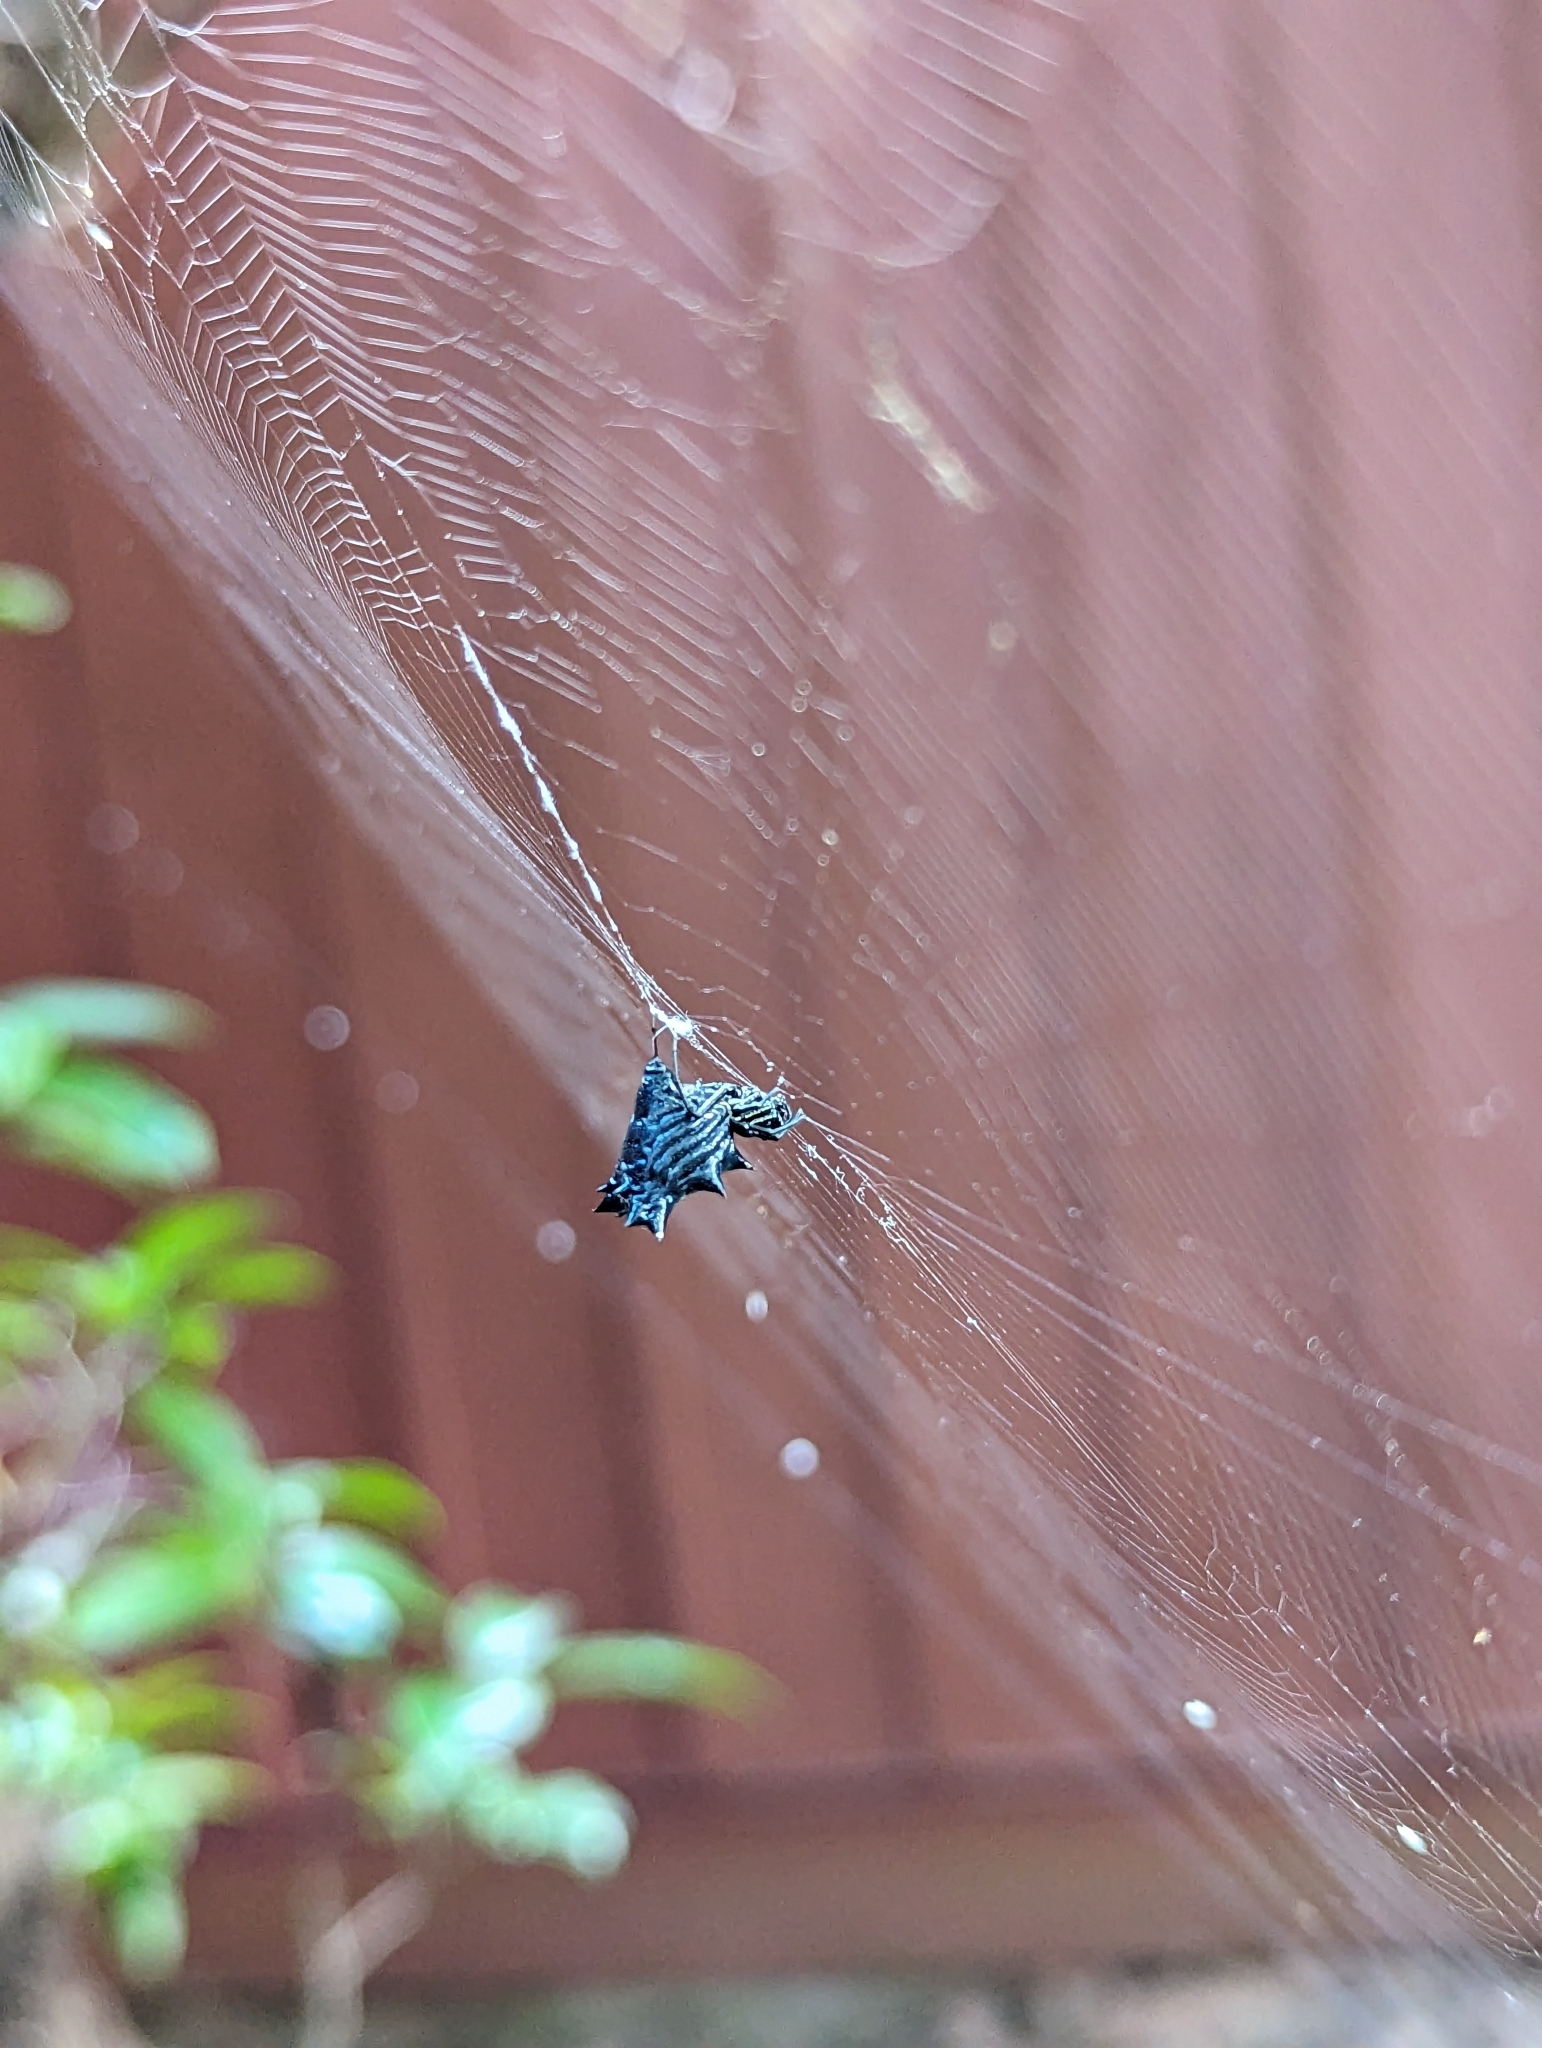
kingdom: Animalia
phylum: Arthropoda
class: Arachnida
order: Araneae
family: Araneidae
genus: Micrathena
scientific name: Micrathena gracilis
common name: Orb weavers
